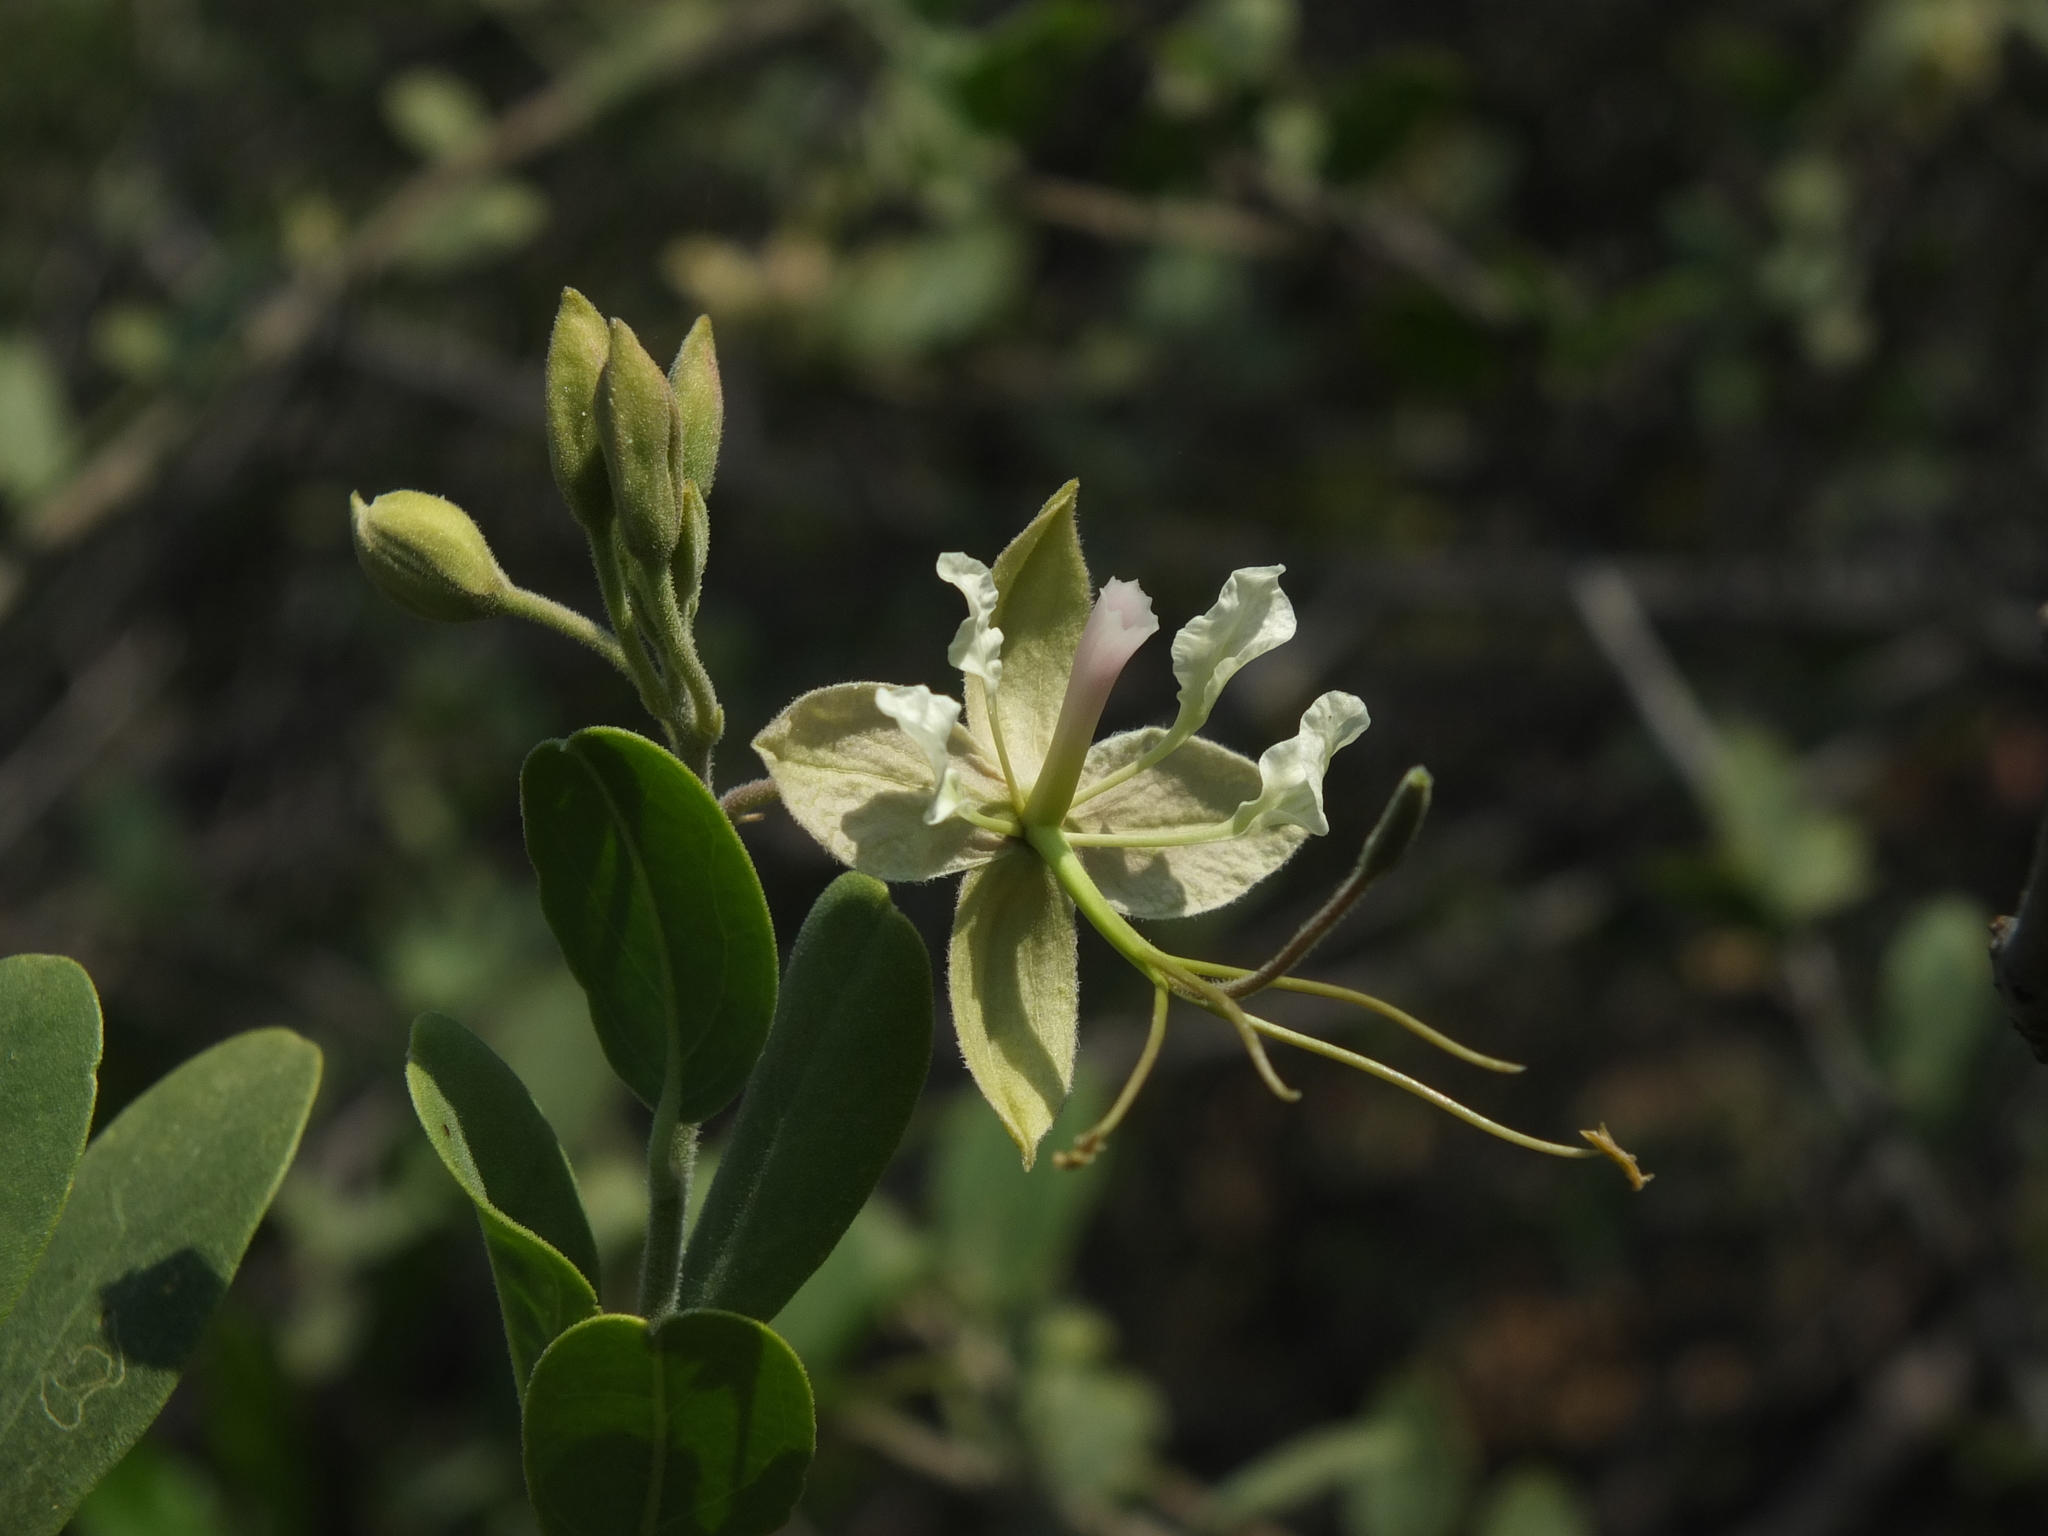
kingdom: Plantae
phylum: Tracheophyta
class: Magnoliopsida
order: Brassicales
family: Capparaceae
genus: Cadaba
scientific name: Cadaba fruticosa
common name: Indian cadaba
